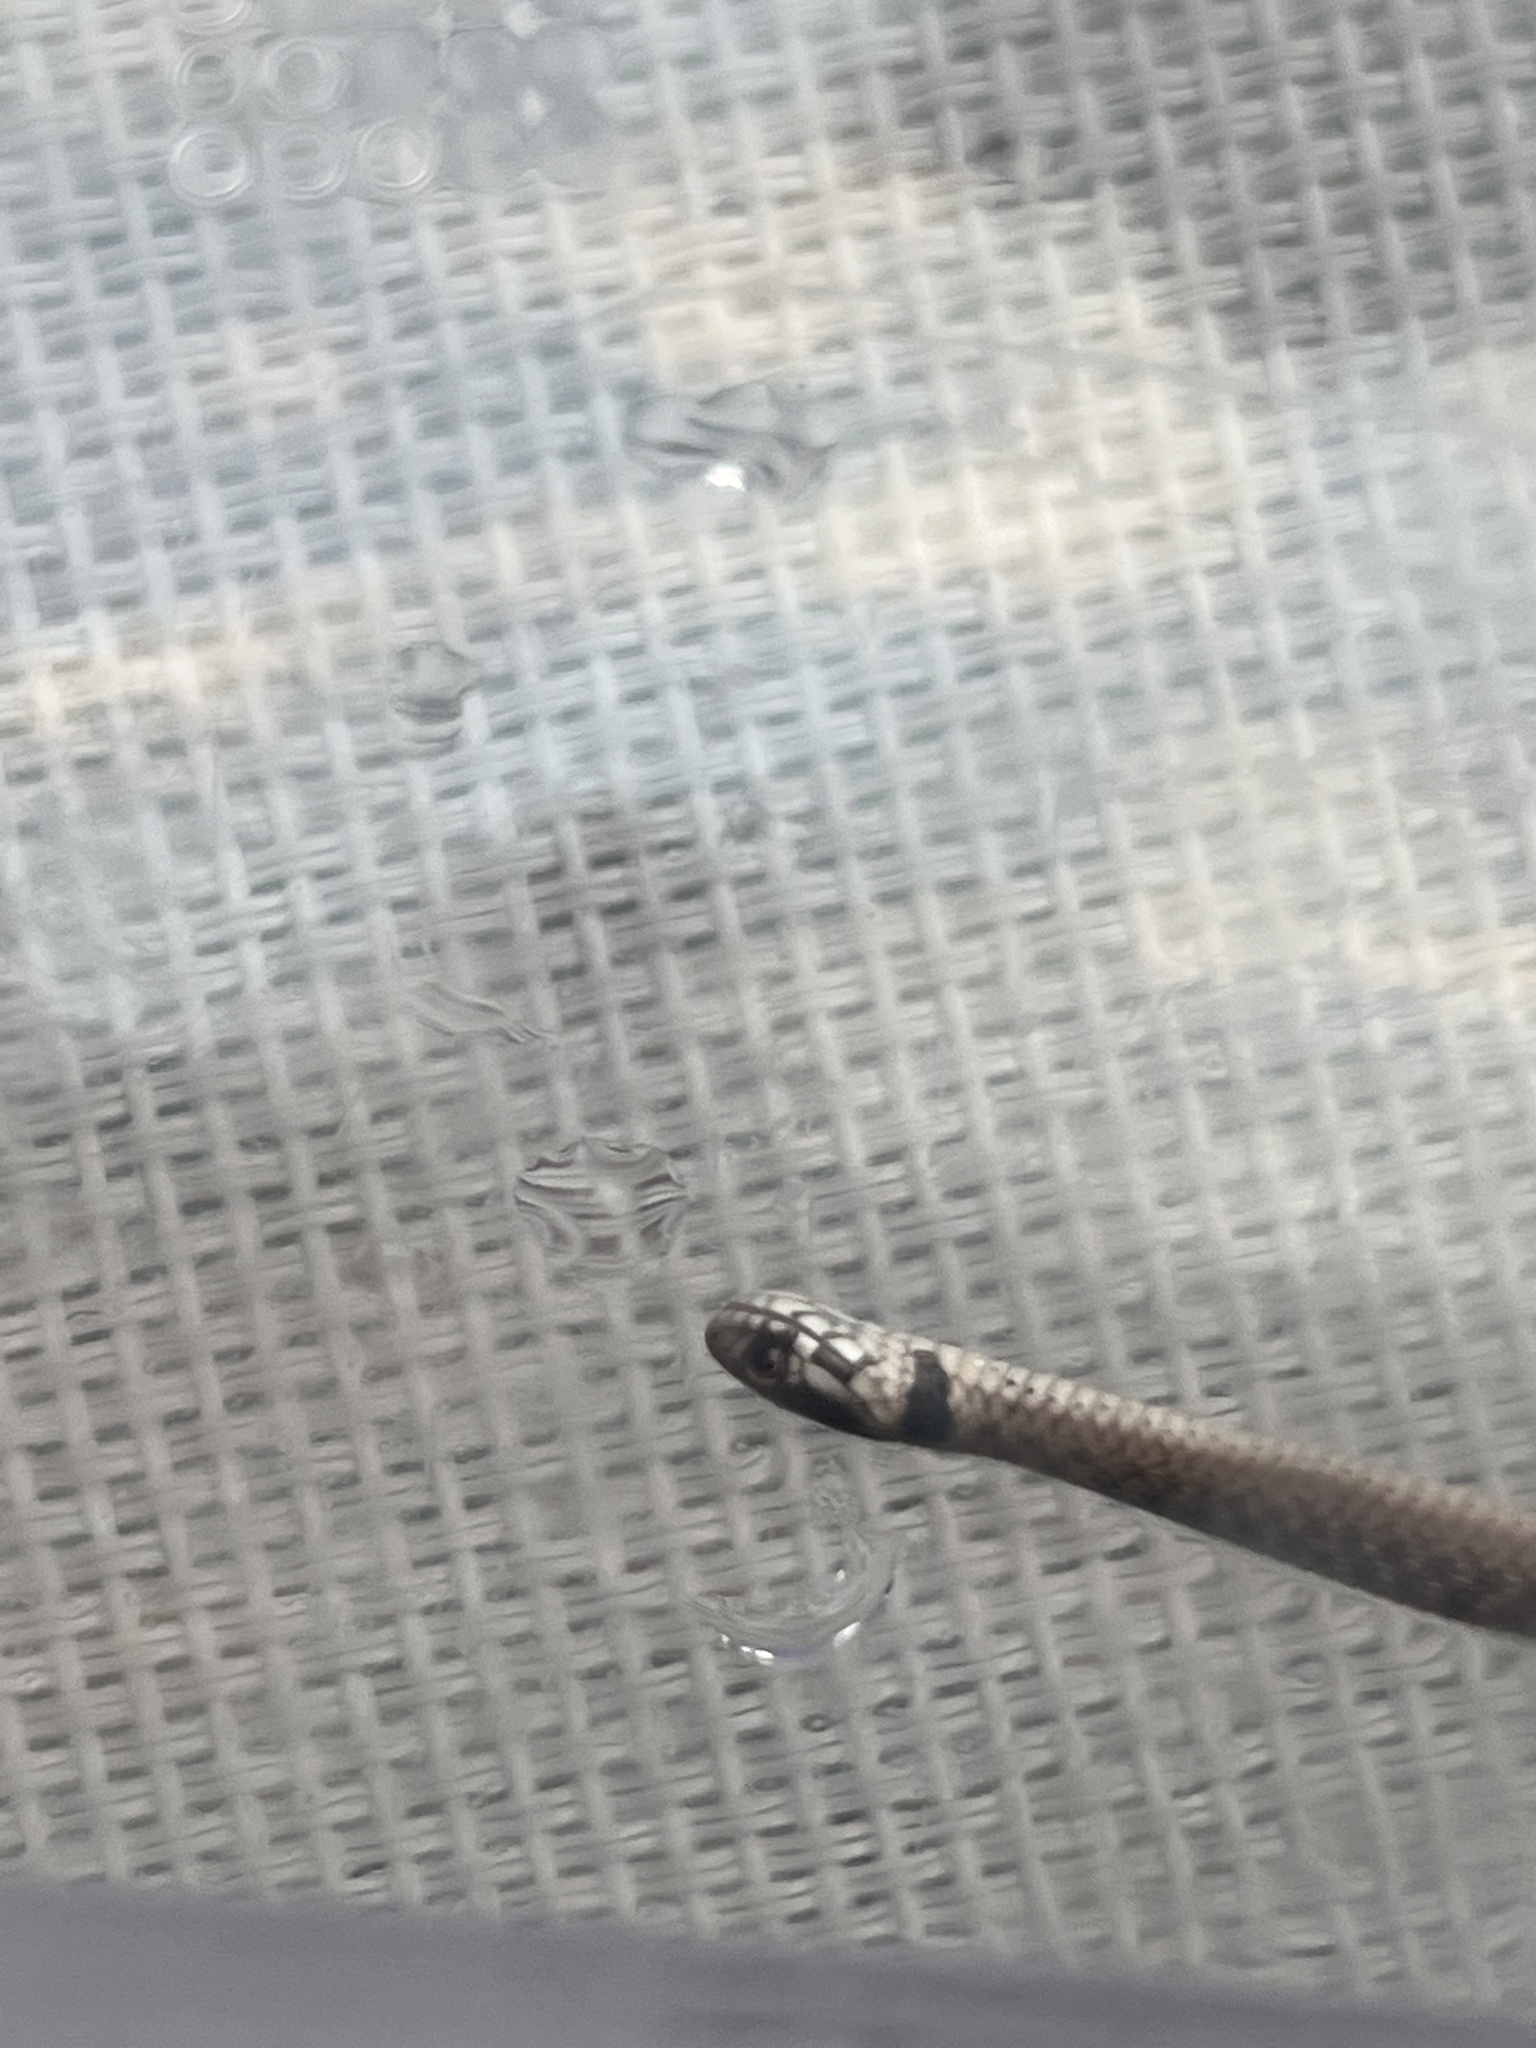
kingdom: Animalia
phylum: Chordata
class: Squamata
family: Colubridae
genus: Storeria
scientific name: Storeria dekayi
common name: (dekay’s) brown snake
